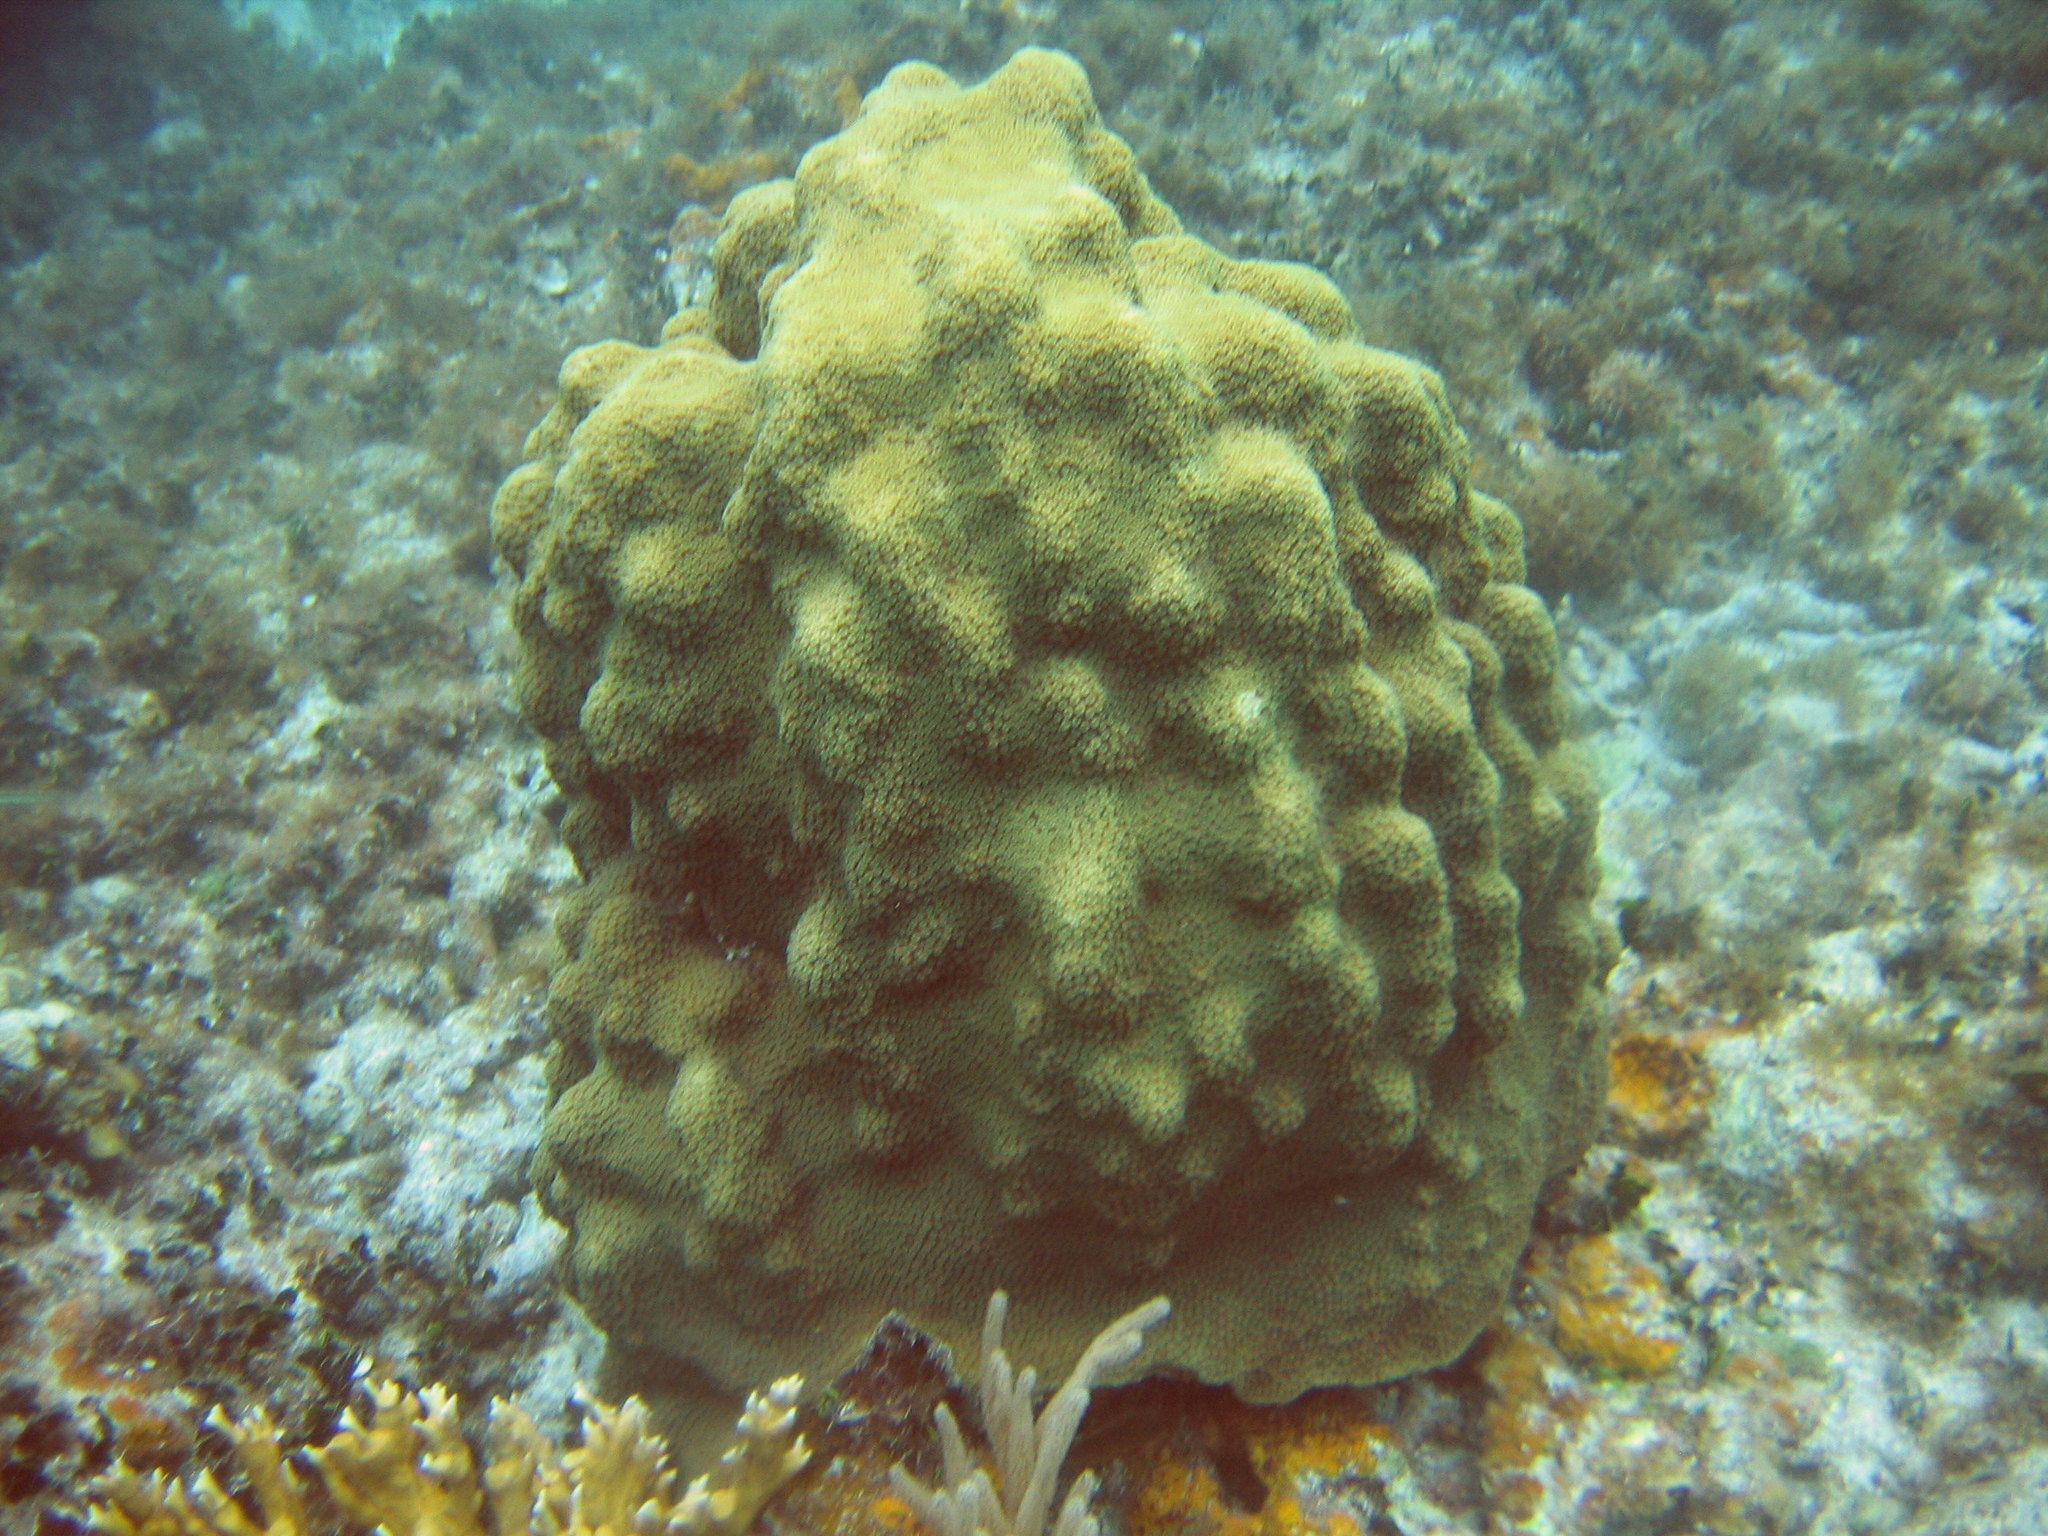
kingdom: Animalia
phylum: Cnidaria
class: Anthozoa
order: Scleractinia
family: Merulinidae
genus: Orbicella
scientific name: Orbicella faveolata
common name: Mountainous star coral
